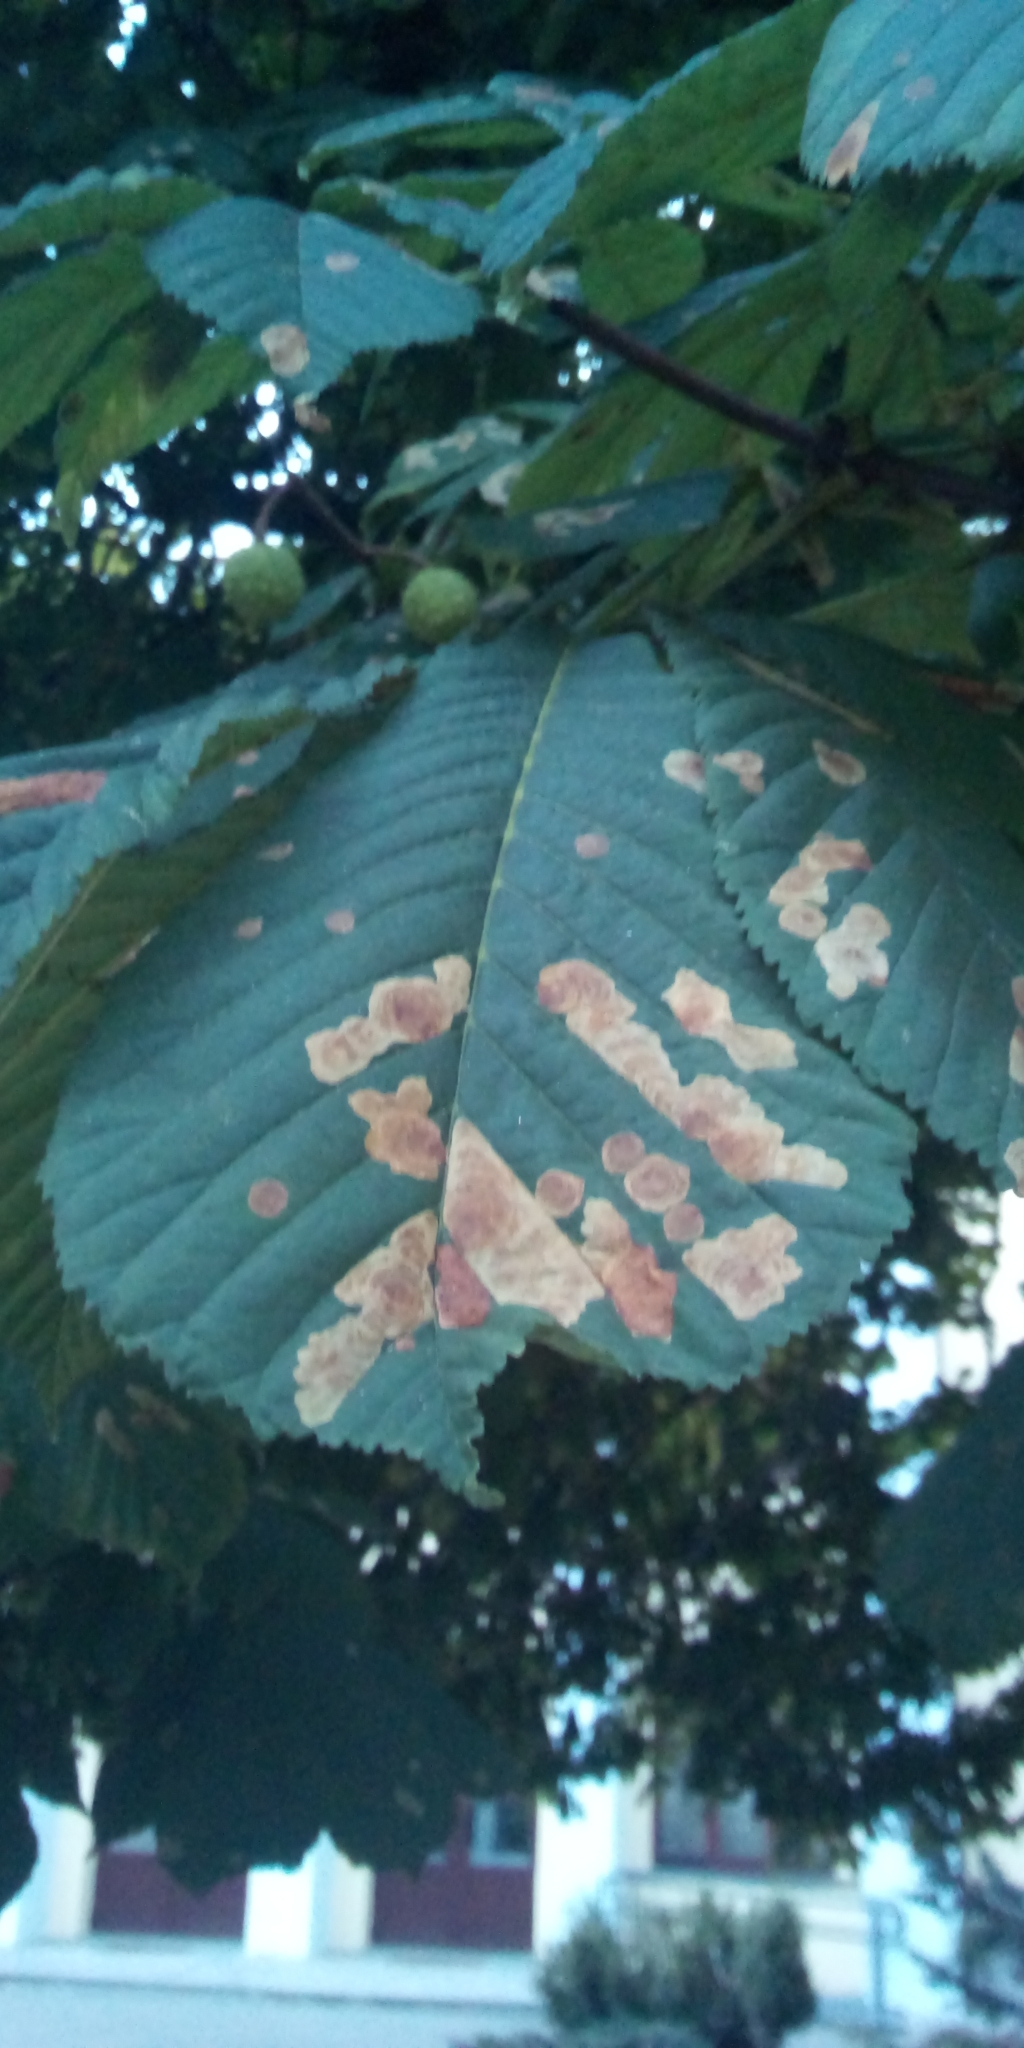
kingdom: Animalia
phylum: Arthropoda
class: Insecta
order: Lepidoptera
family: Gracillariidae
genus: Cameraria
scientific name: Cameraria ohridella
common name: Horse-chestnut leaf-miner
